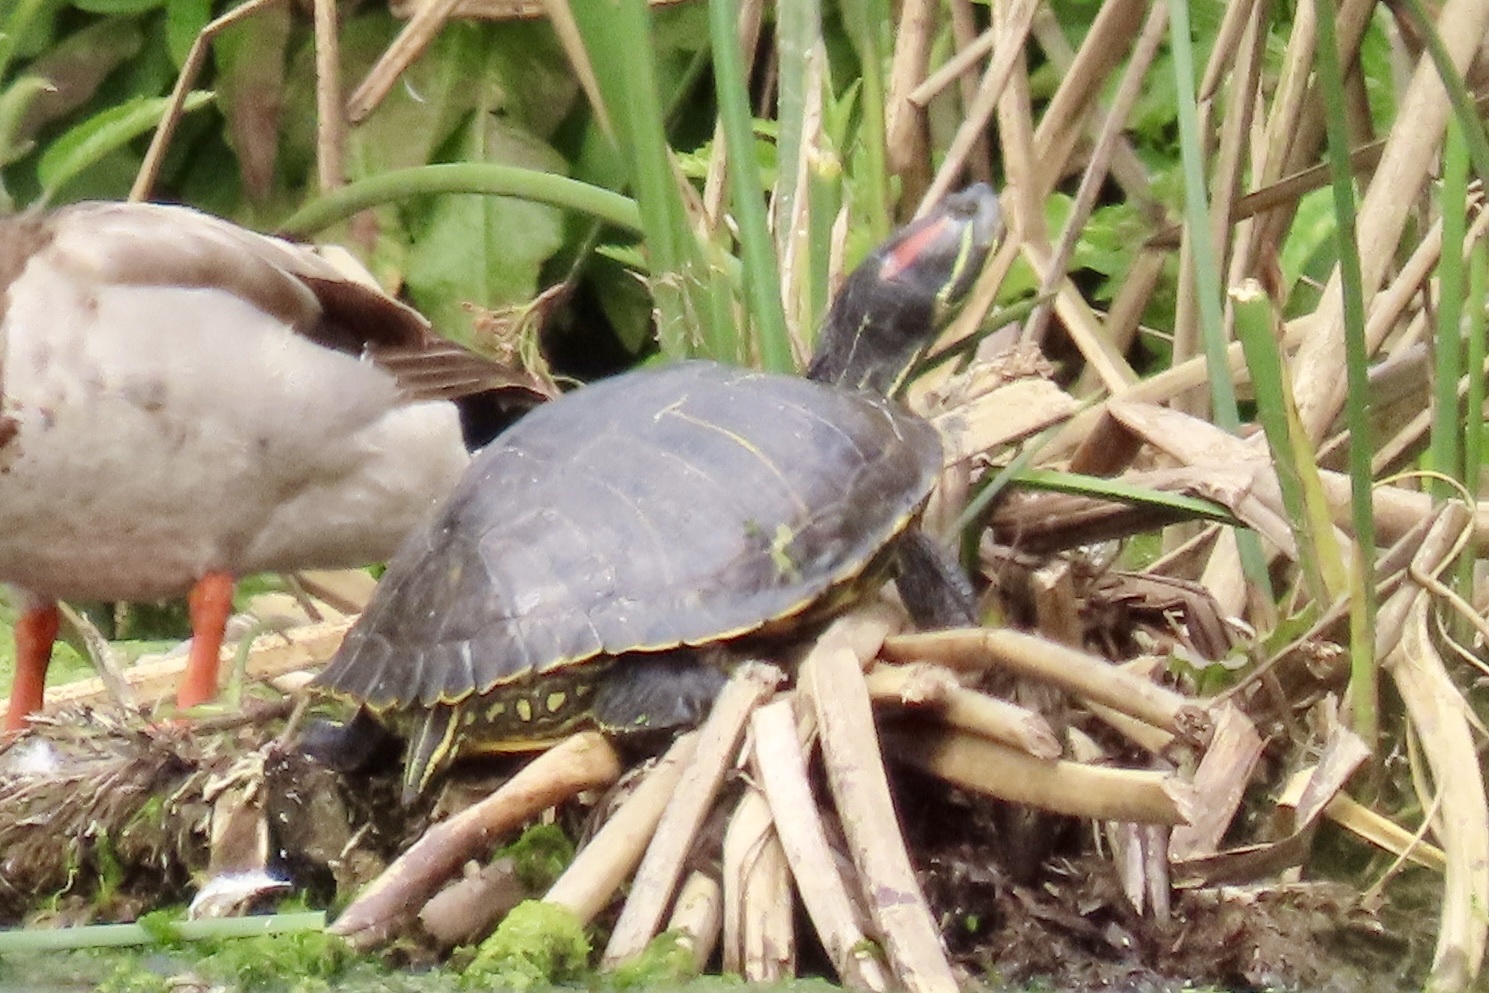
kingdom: Animalia
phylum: Chordata
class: Testudines
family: Emydidae
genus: Trachemys
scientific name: Trachemys scripta
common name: Slider
